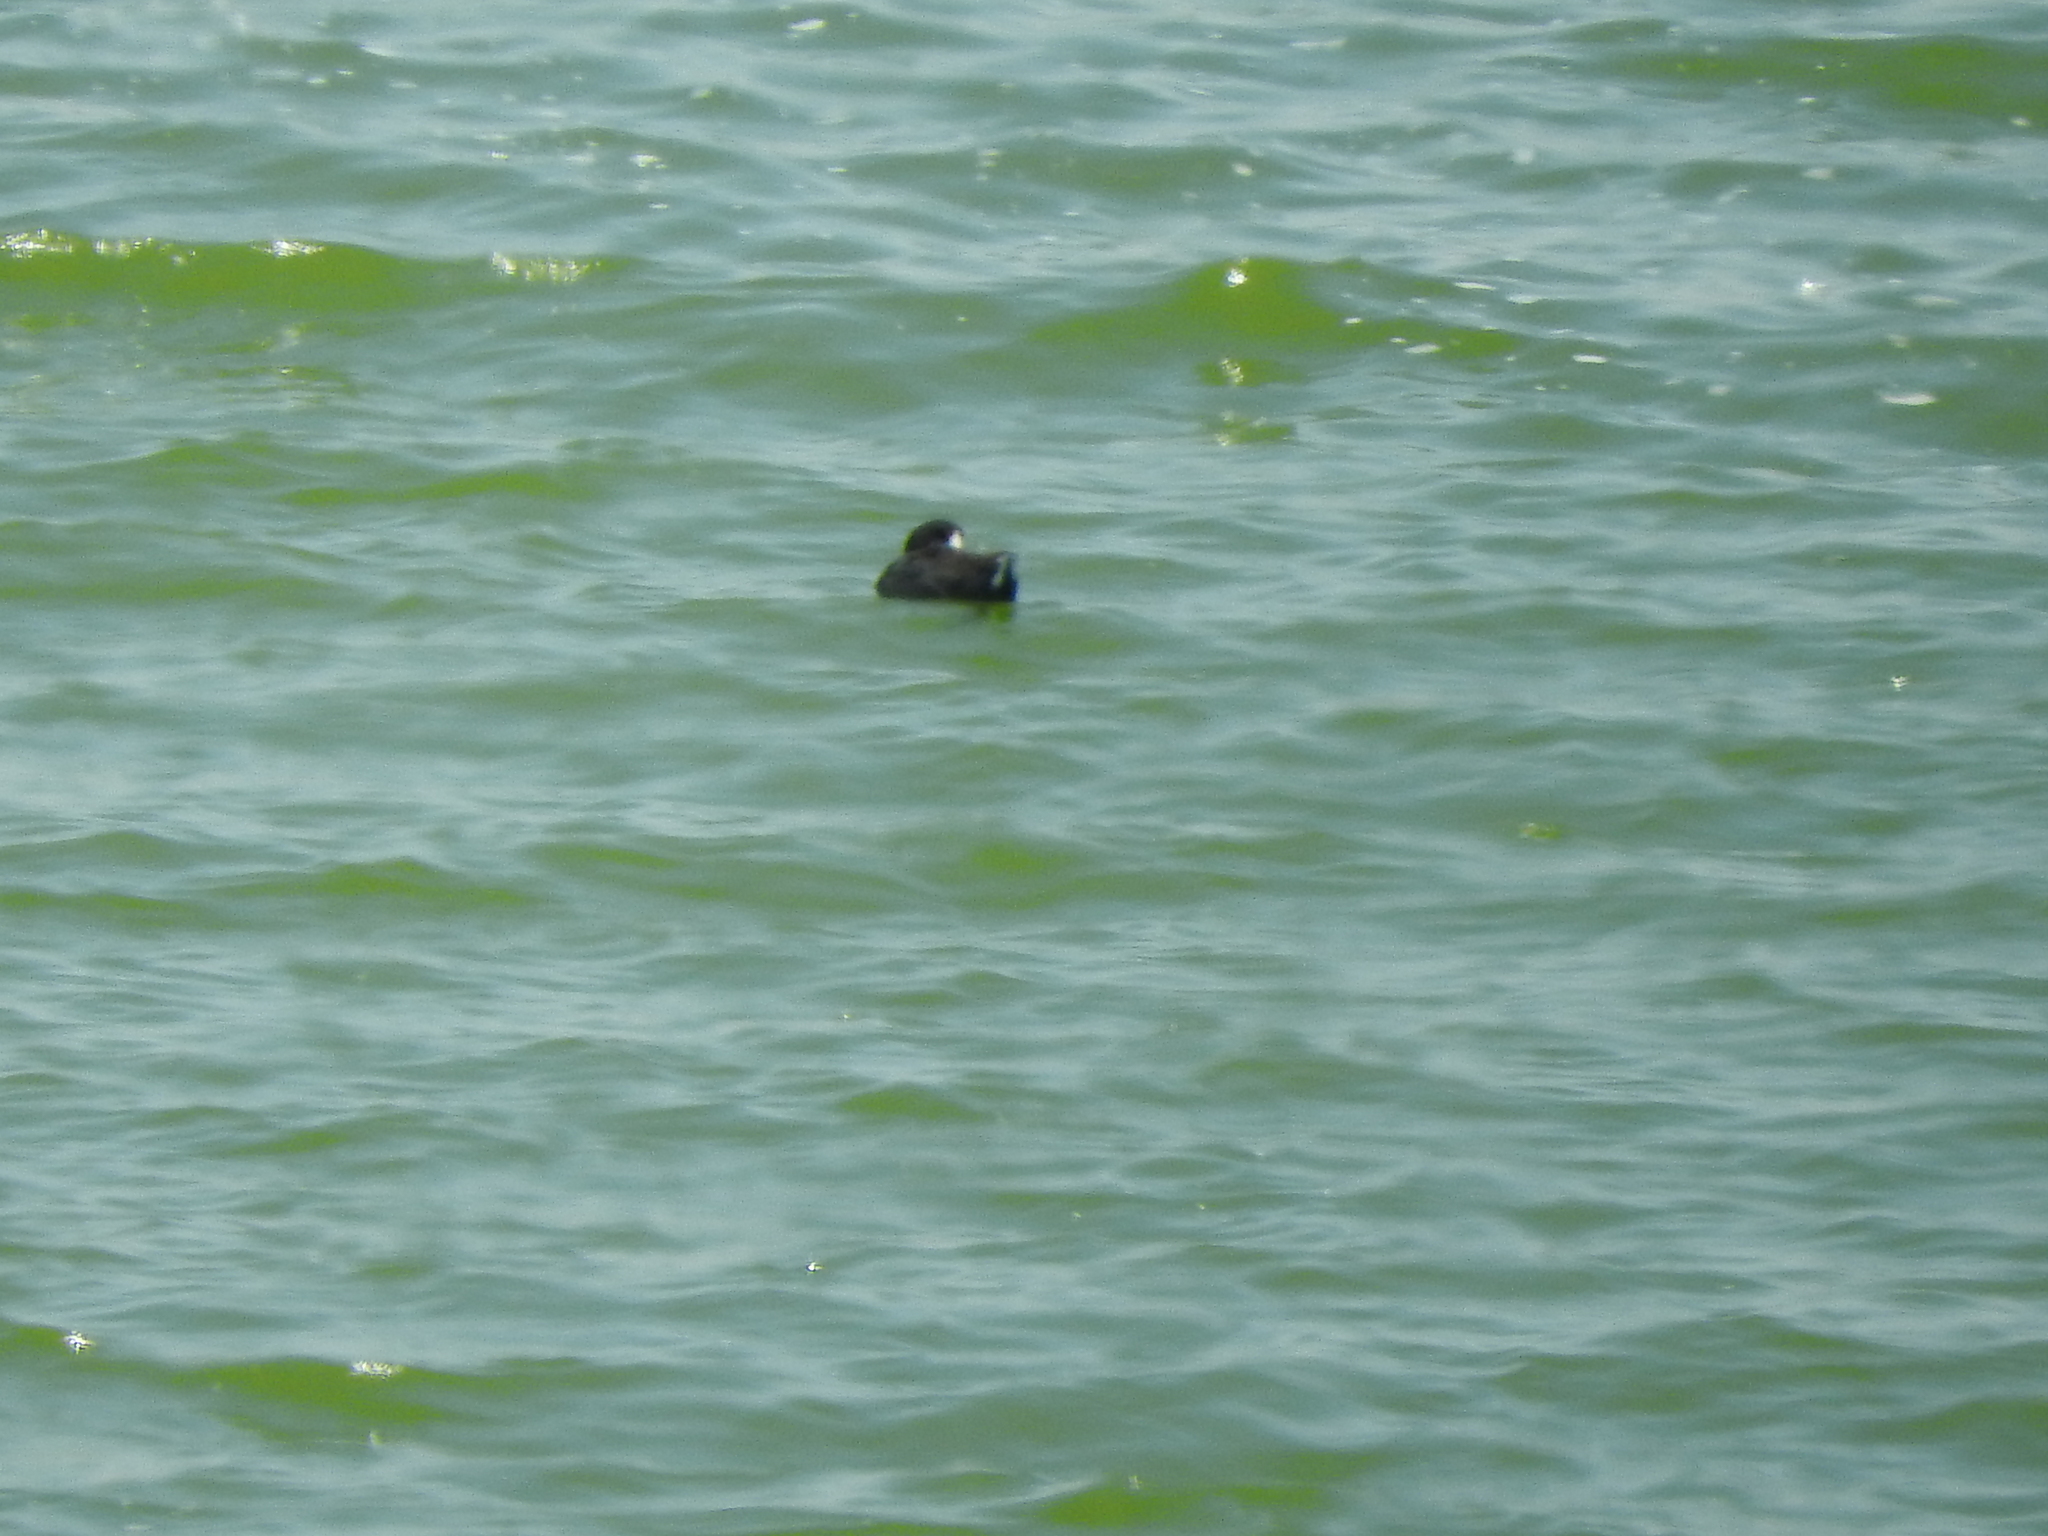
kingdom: Animalia
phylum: Chordata
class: Aves
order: Gruiformes
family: Rallidae
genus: Fulica
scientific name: Fulica americana
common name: American coot
